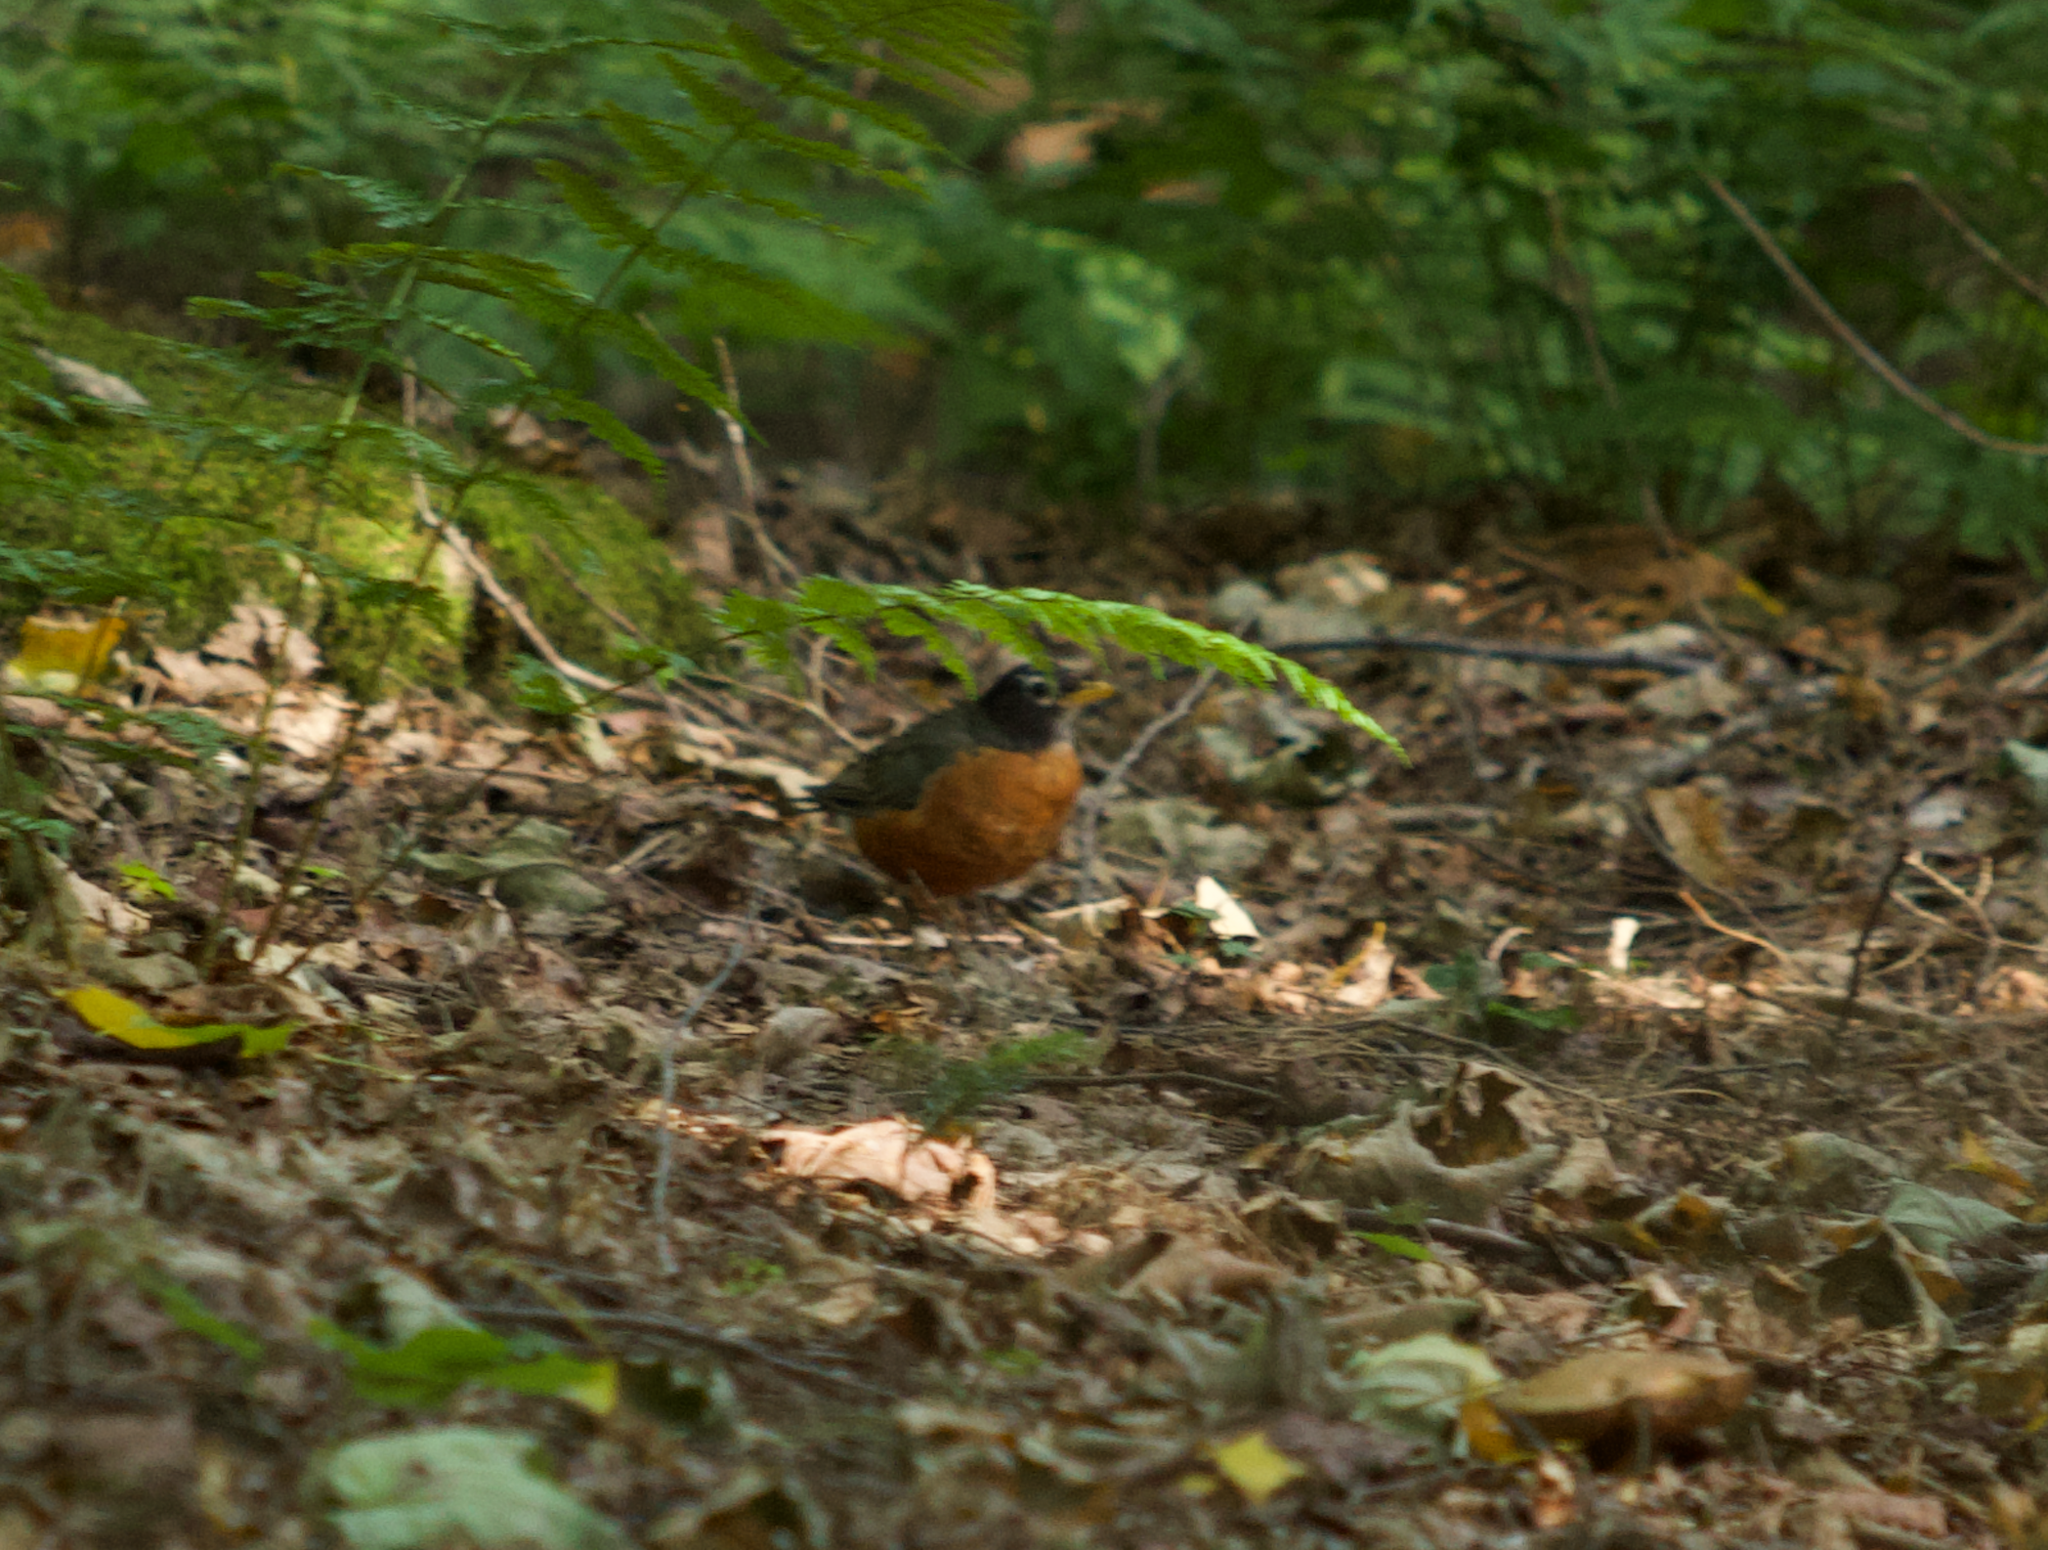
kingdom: Animalia
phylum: Chordata
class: Aves
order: Passeriformes
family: Turdidae
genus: Turdus
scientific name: Turdus migratorius
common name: American robin
